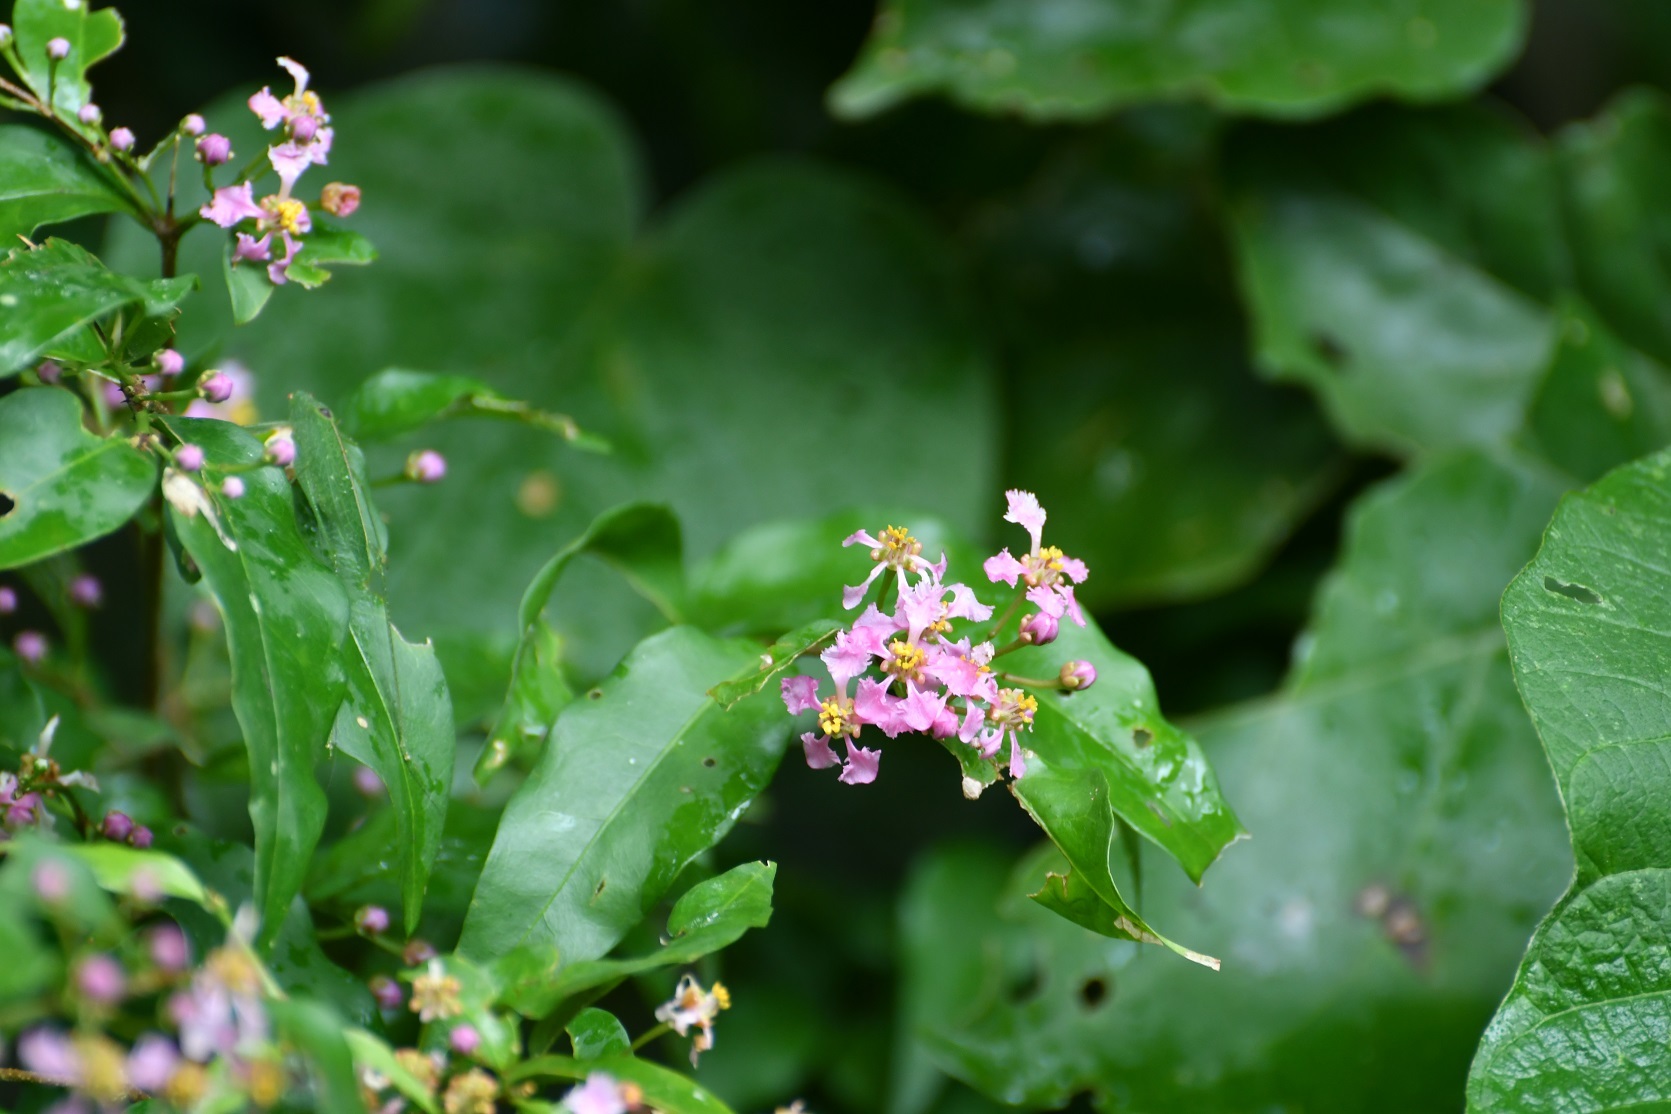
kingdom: Plantae
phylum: Tracheophyta
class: Magnoliopsida
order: Malpighiales
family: Malpighiaceae
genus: Malpighia
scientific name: Malpighia glabra
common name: Barbados cherry
